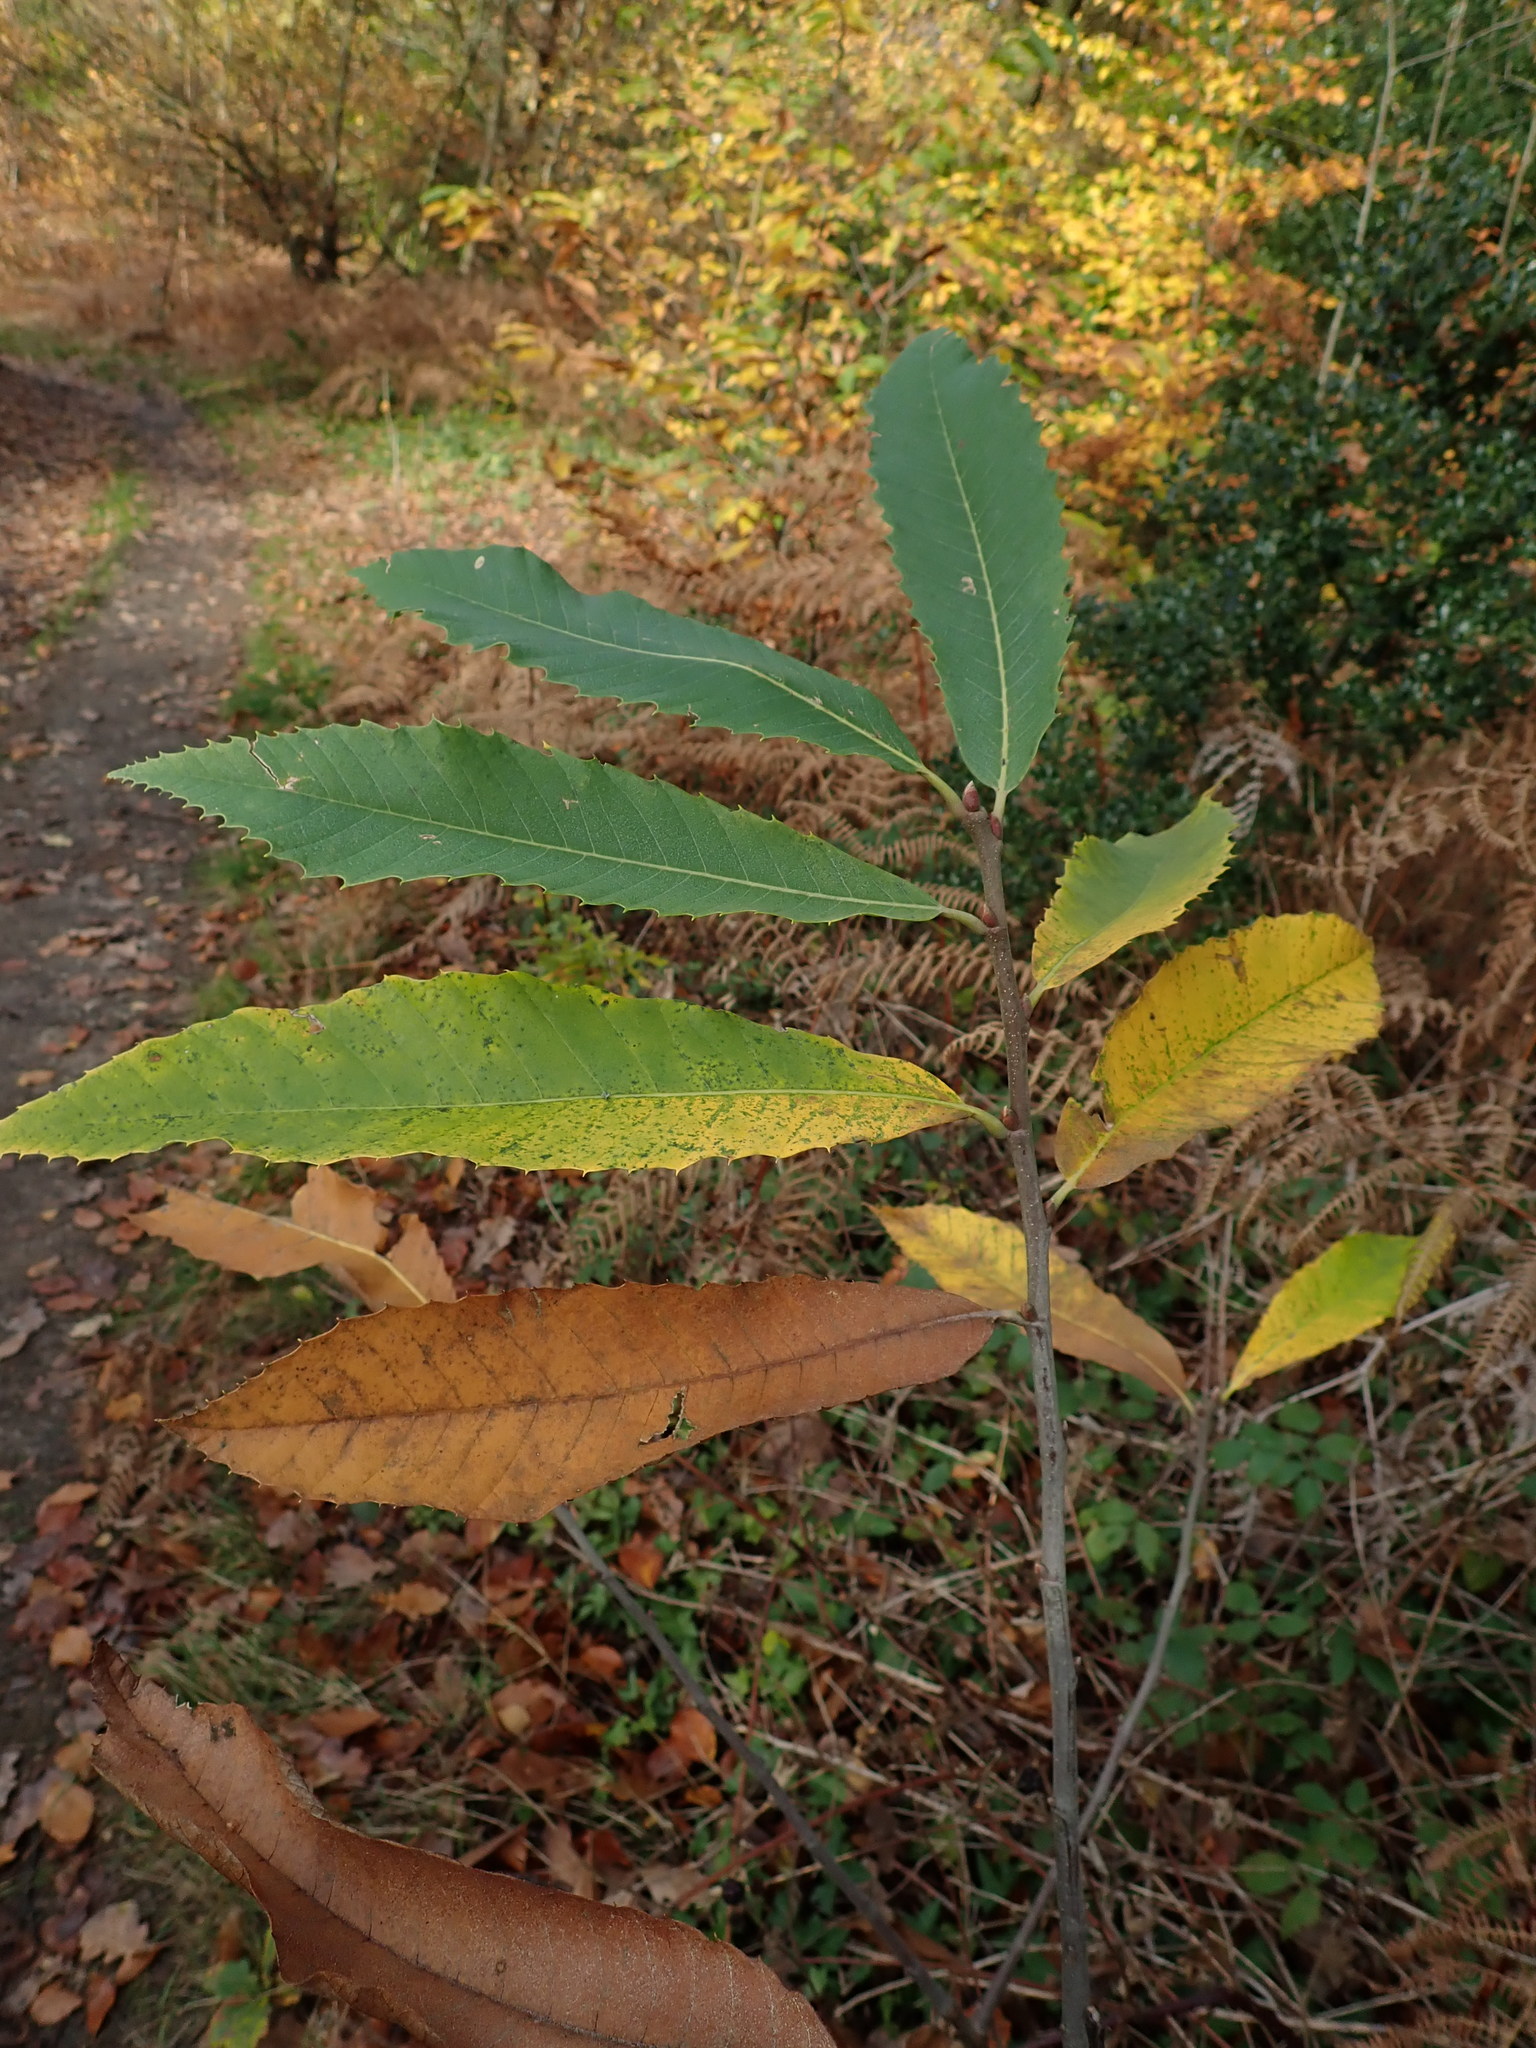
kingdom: Plantae
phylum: Tracheophyta
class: Magnoliopsida
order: Fagales
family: Fagaceae
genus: Castanea
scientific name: Castanea sativa
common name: Sweet chestnut
